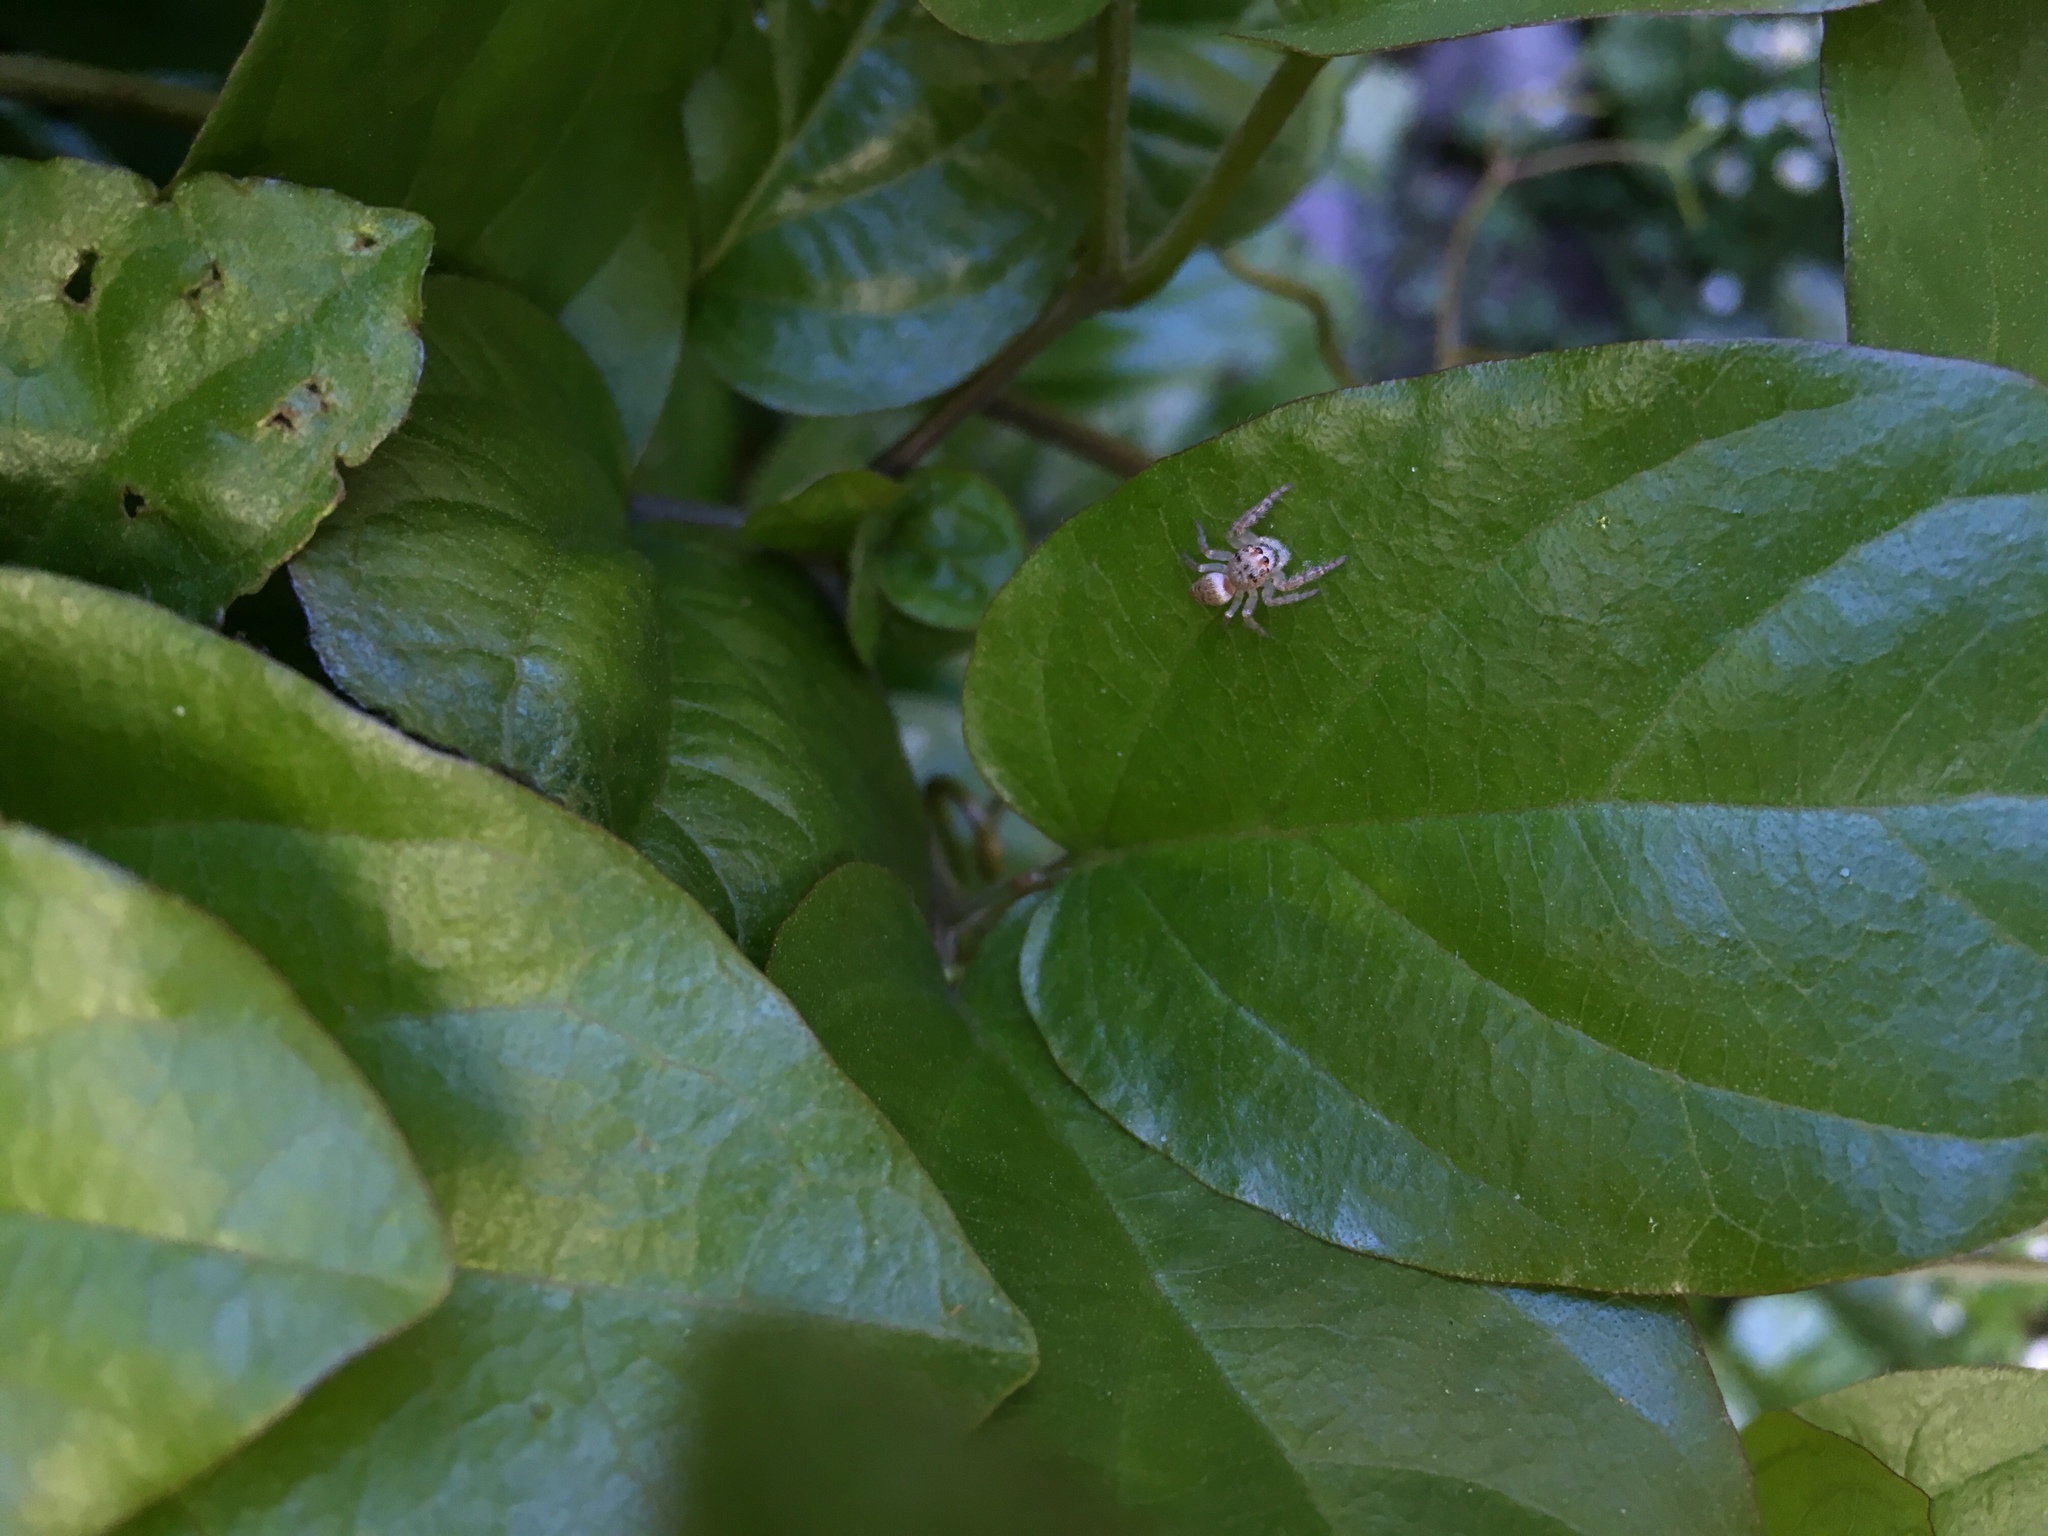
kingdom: Animalia
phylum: Arthropoda
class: Arachnida
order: Araneae
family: Salticidae
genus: Opisthoncus
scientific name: Opisthoncus polyphemus
